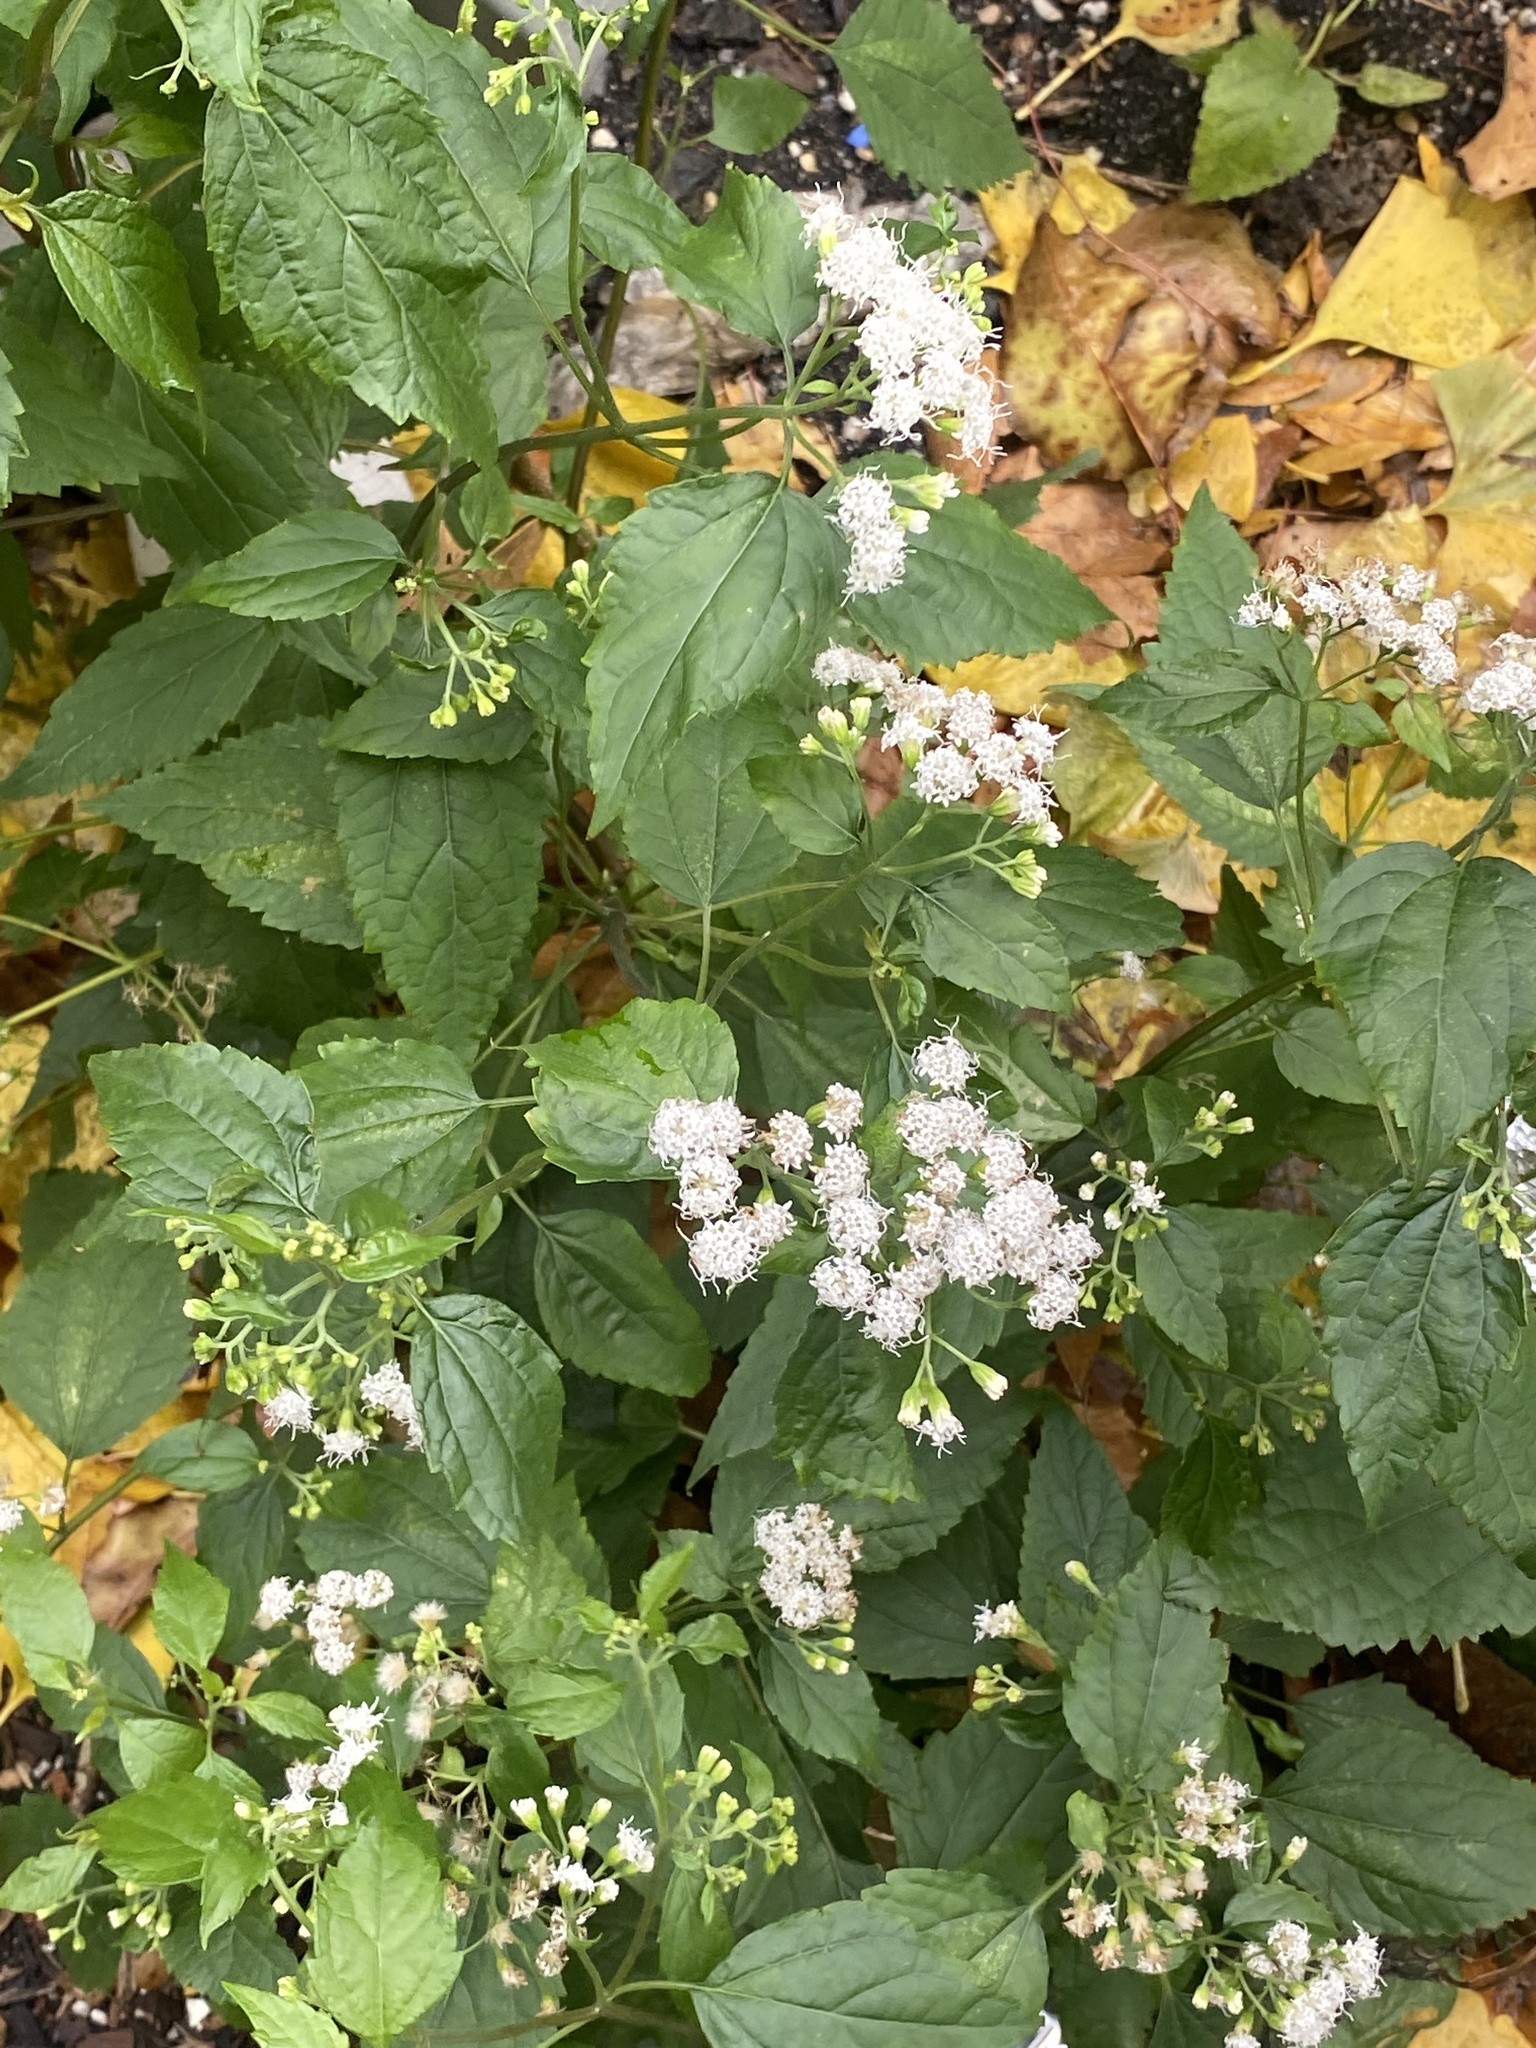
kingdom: Plantae
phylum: Tracheophyta
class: Magnoliopsida
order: Asterales
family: Asteraceae
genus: Ageratina
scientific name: Ageratina altissima
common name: White snakeroot
